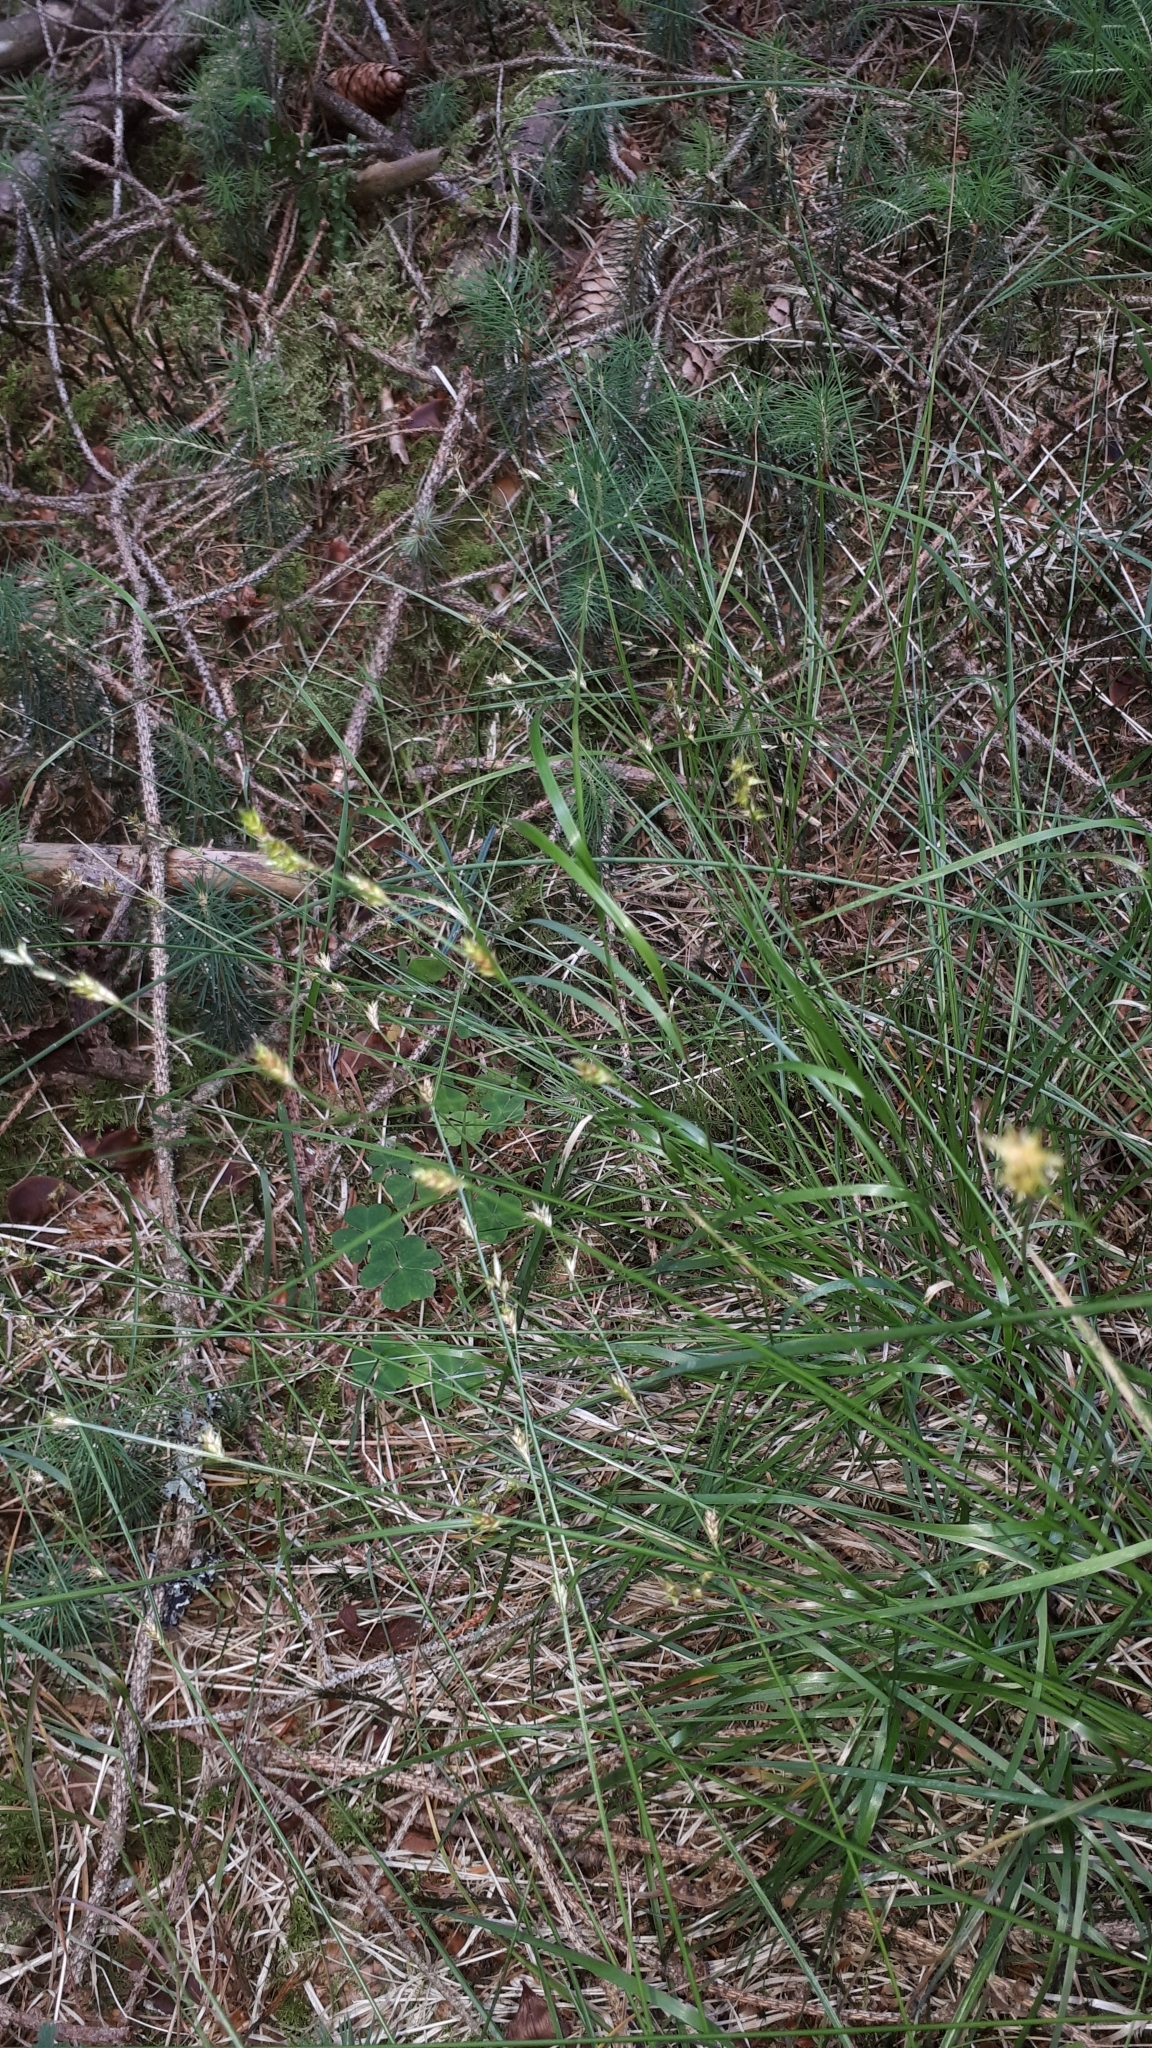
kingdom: Plantae
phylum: Tracheophyta
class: Liliopsida
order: Poales
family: Cyperaceae
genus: Carex
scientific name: Carex remota
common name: Remote sedge
